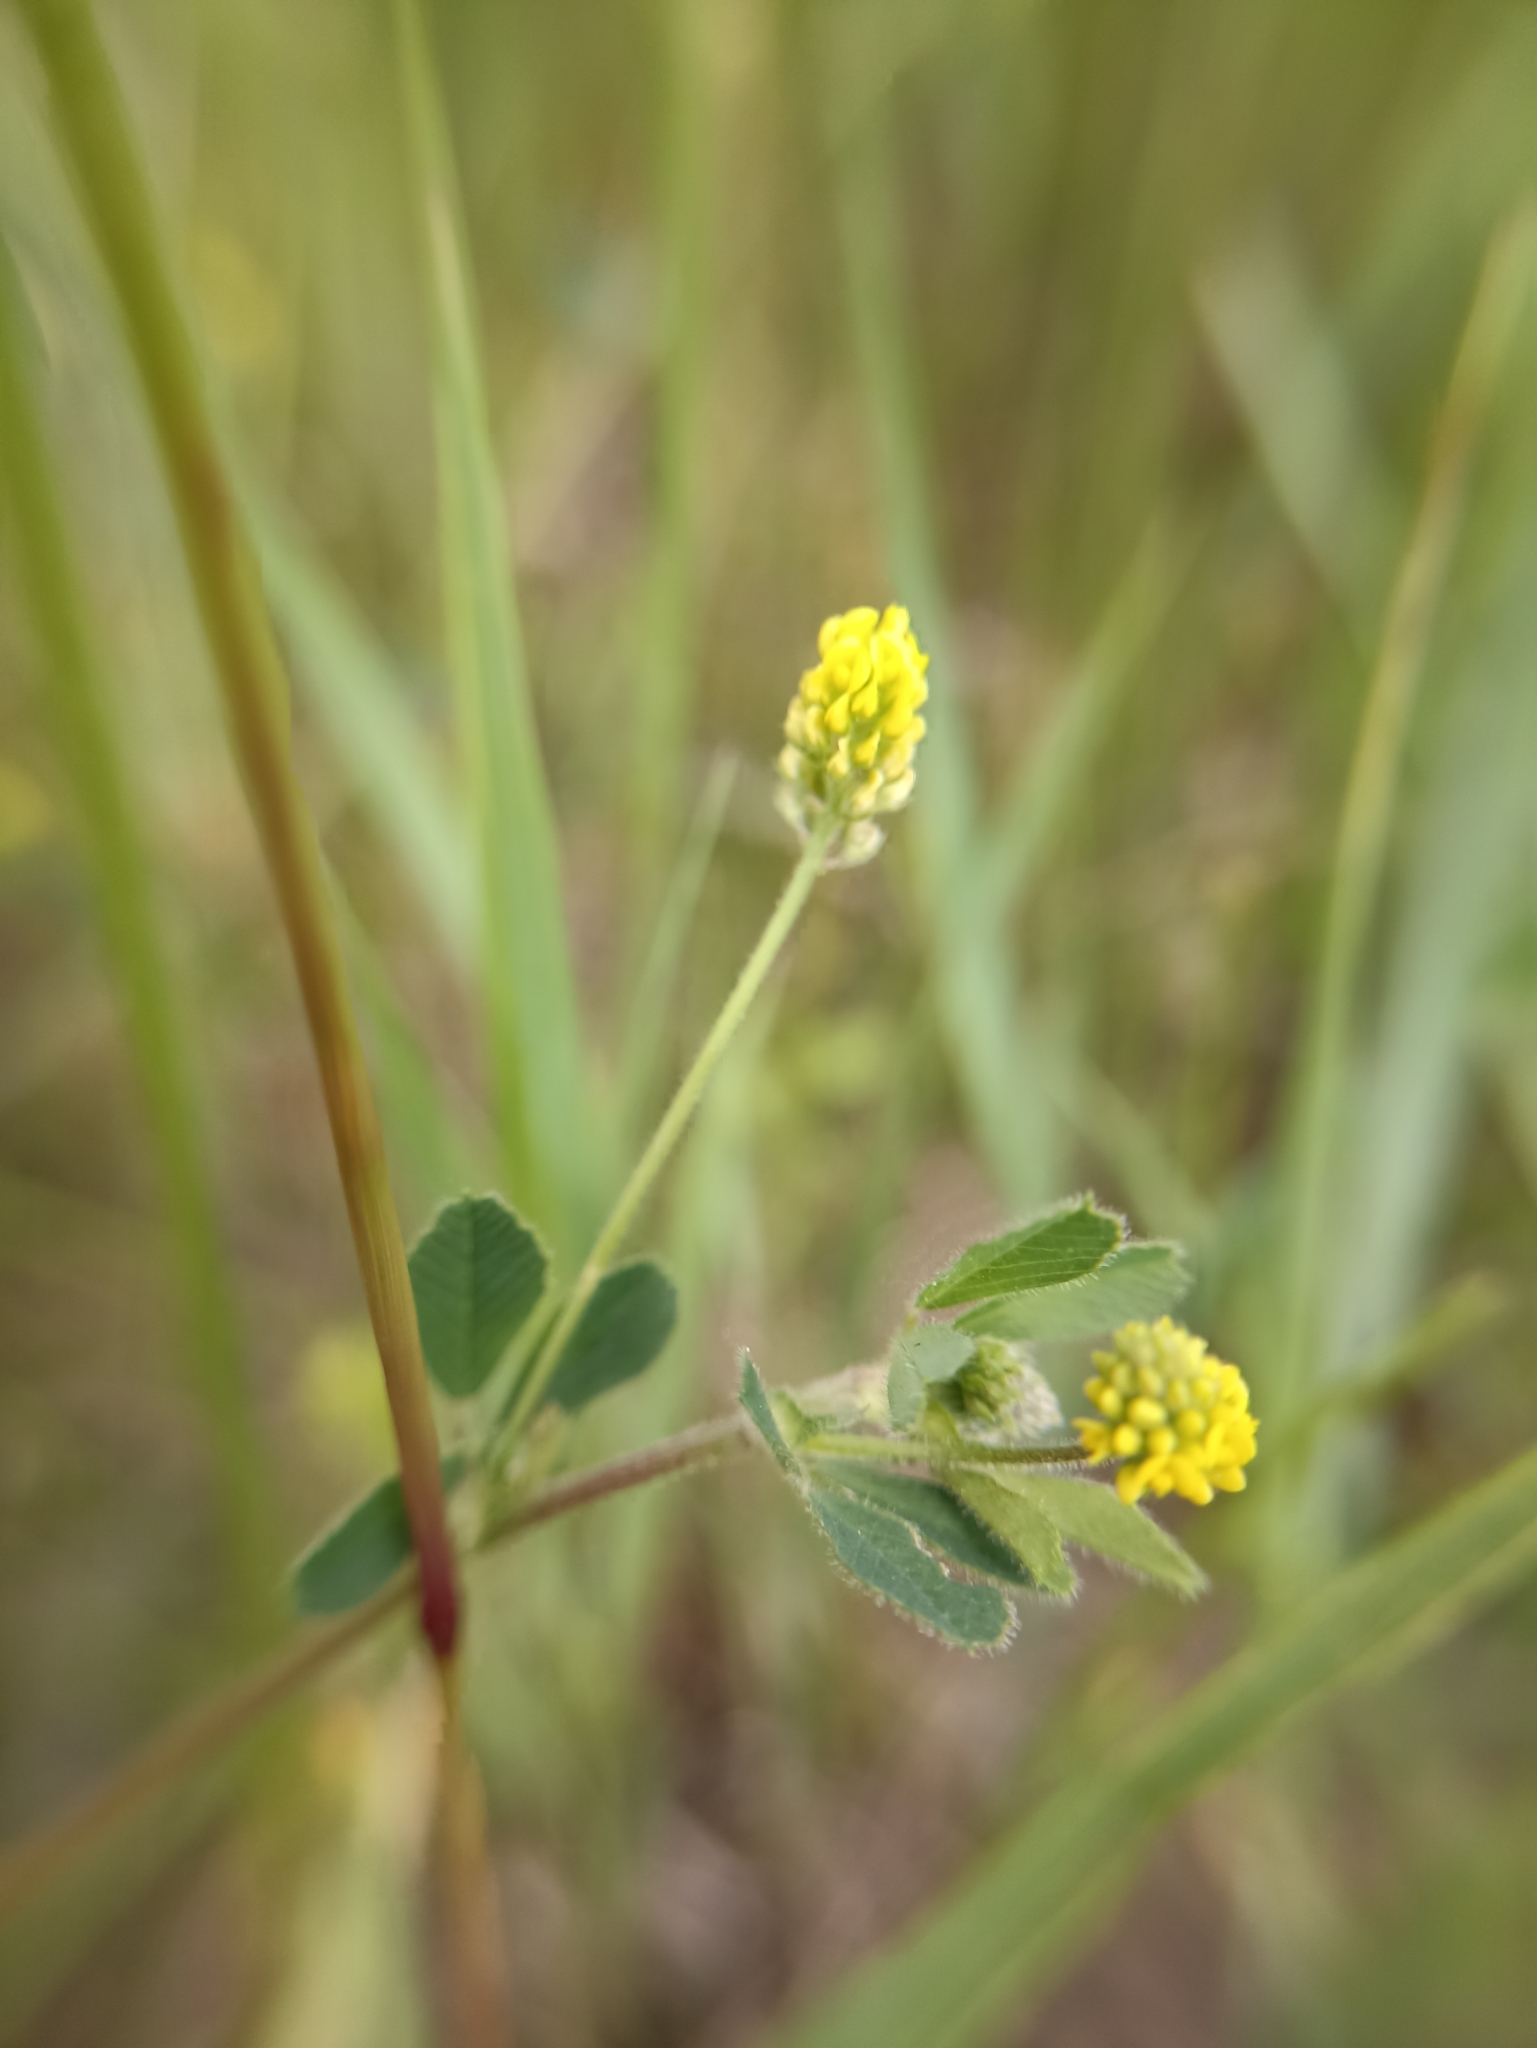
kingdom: Plantae
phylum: Tracheophyta
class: Magnoliopsida
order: Fabales
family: Fabaceae
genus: Medicago
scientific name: Medicago lupulina
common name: Black medick
